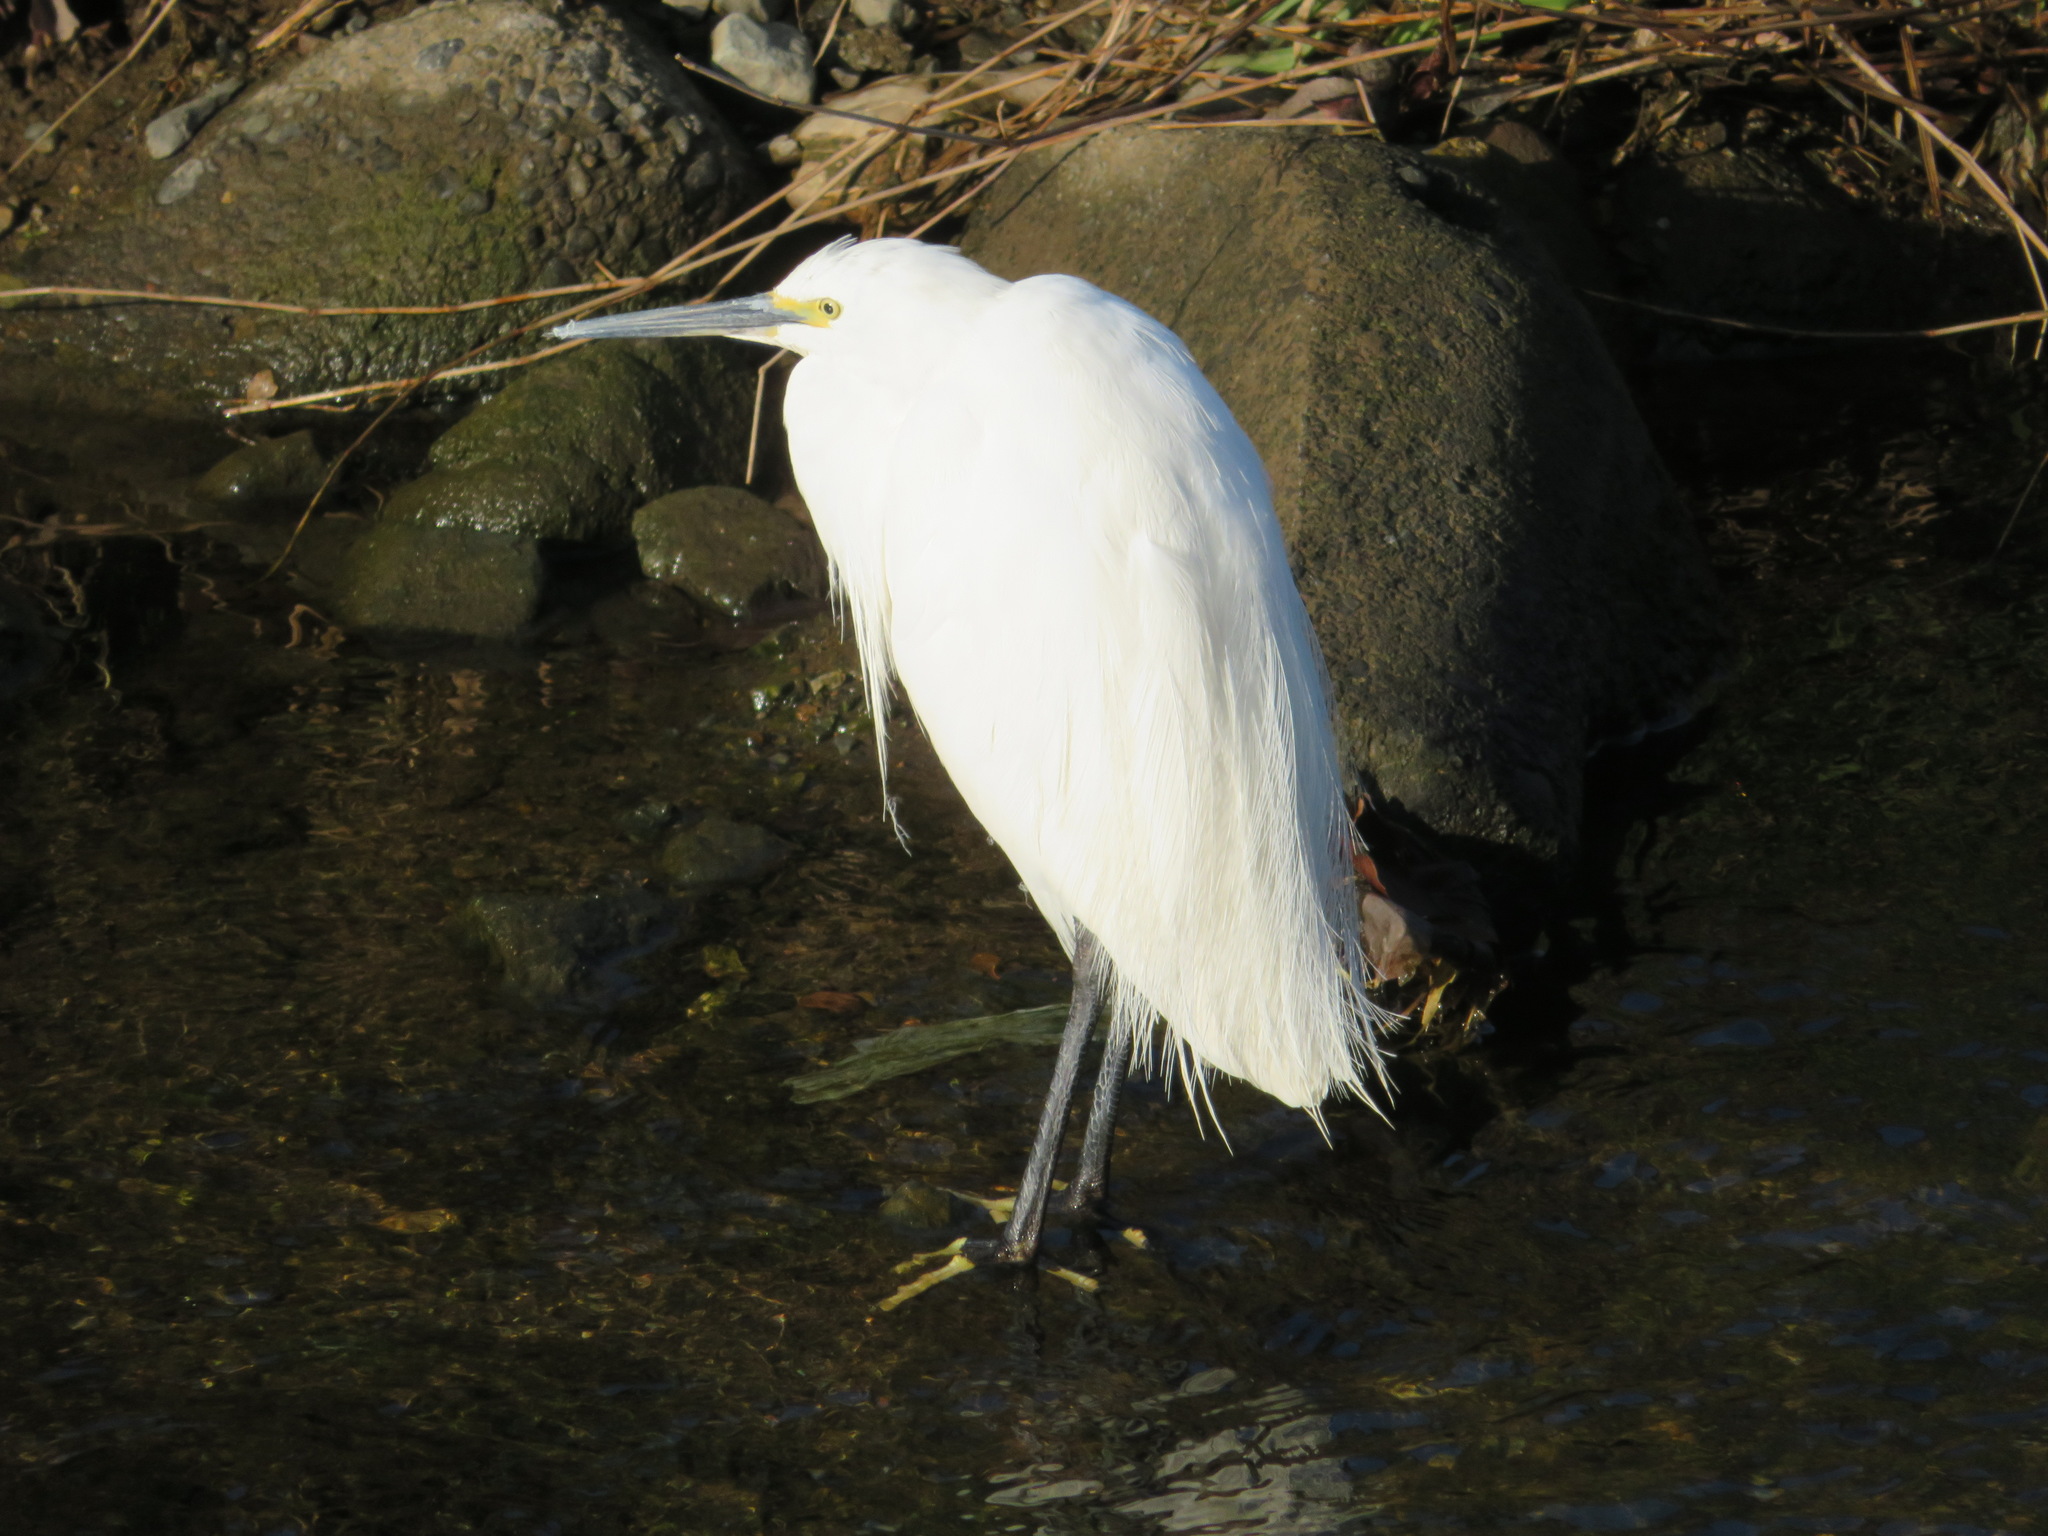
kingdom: Animalia
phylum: Chordata
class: Aves
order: Pelecaniformes
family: Ardeidae
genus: Egretta
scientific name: Egretta garzetta
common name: Little egret
